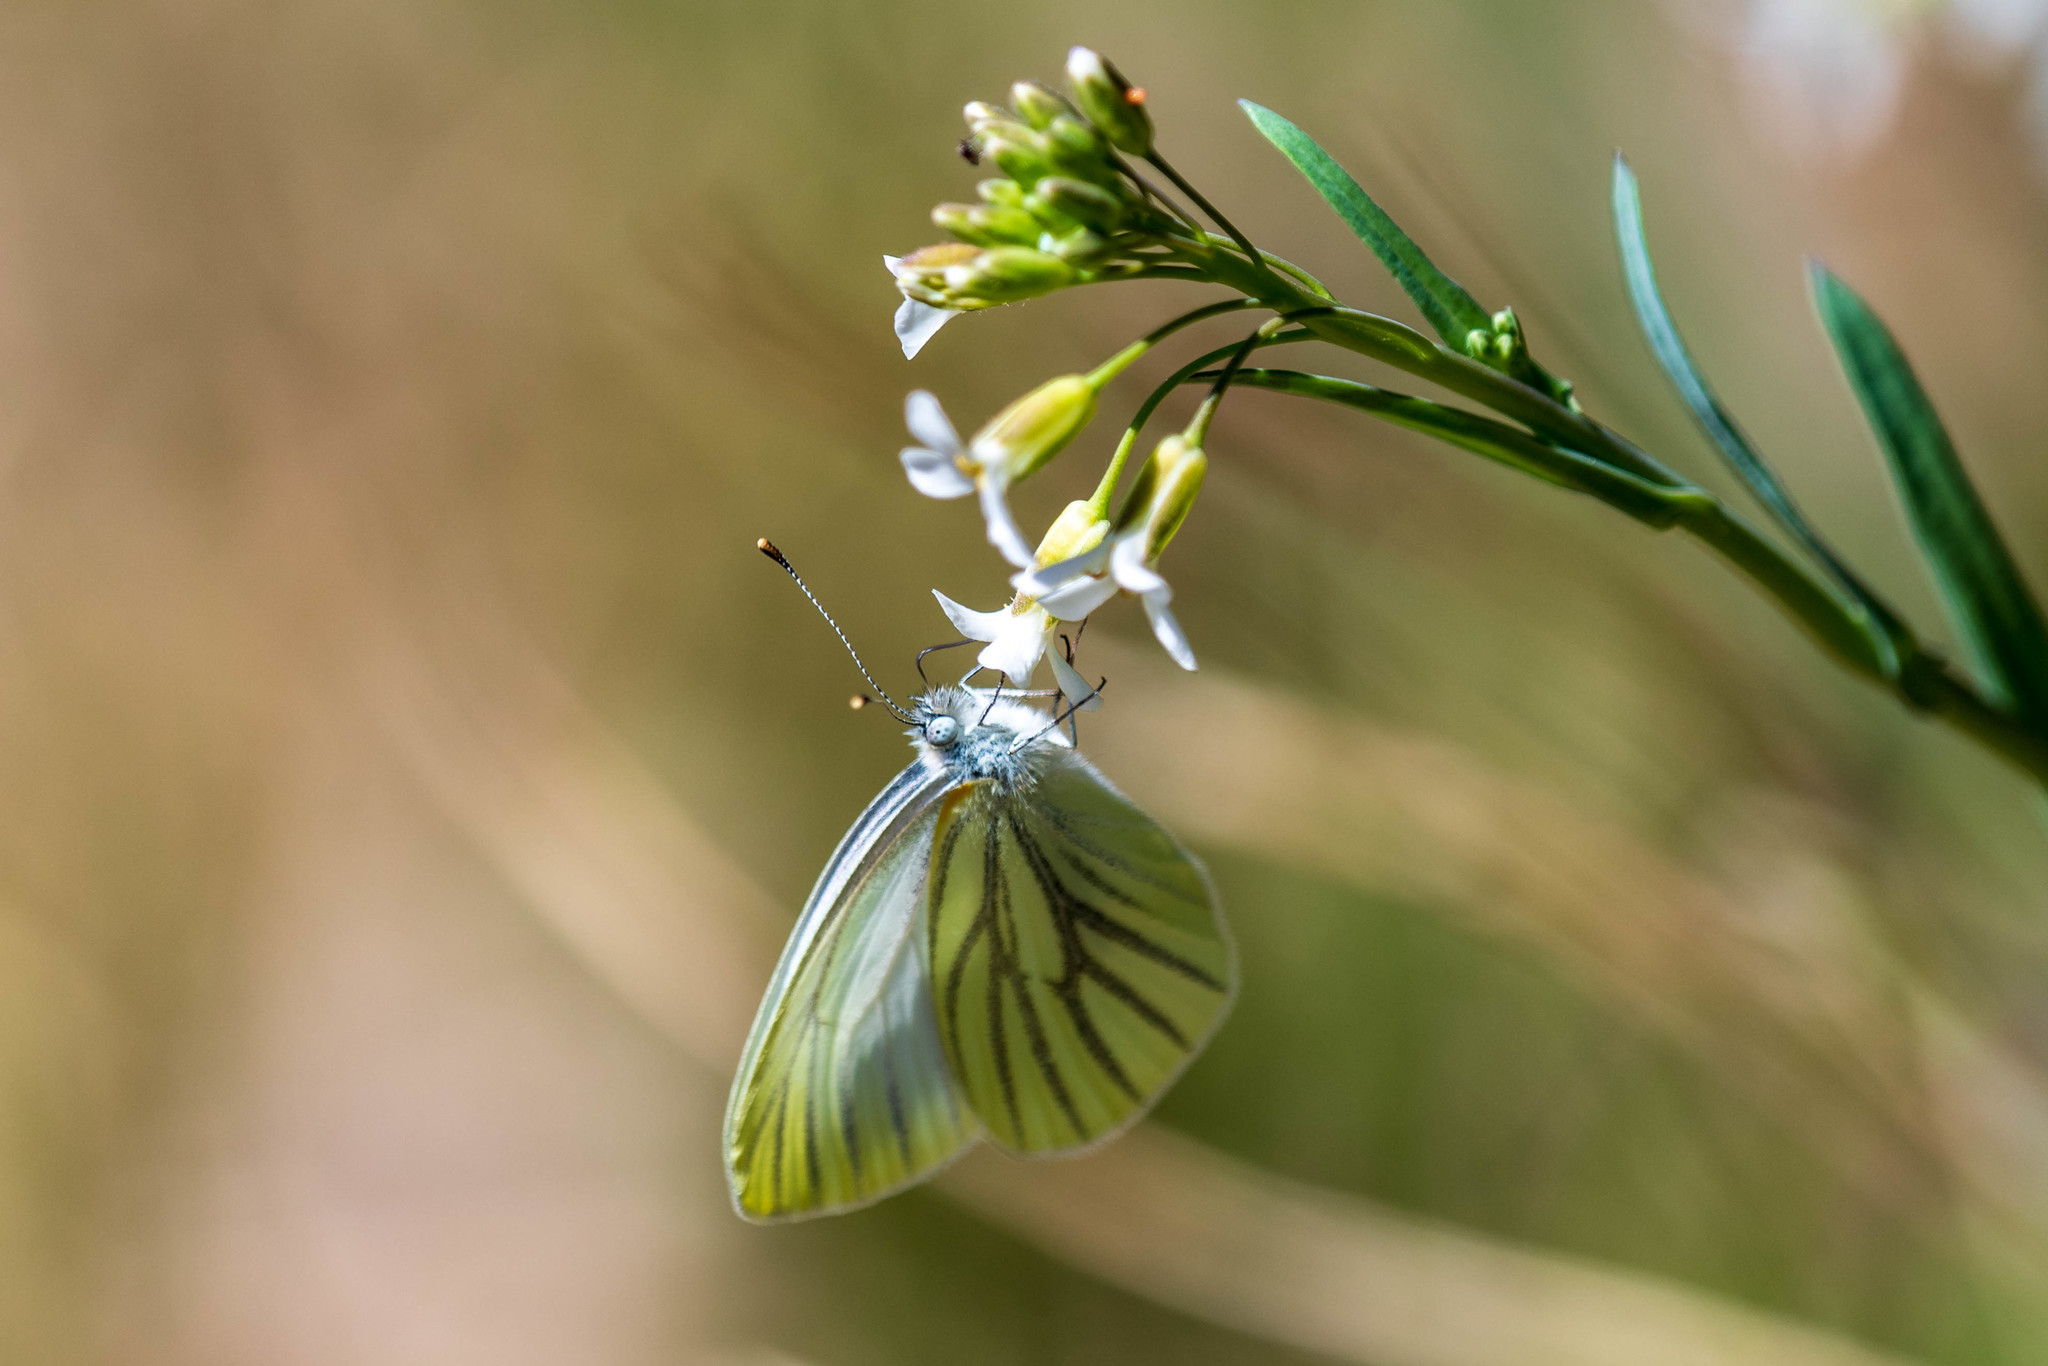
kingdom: Animalia
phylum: Arthropoda
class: Insecta
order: Lepidoptera
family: Pieridae
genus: Pieris
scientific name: Pieris oleracea
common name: Mustard white
